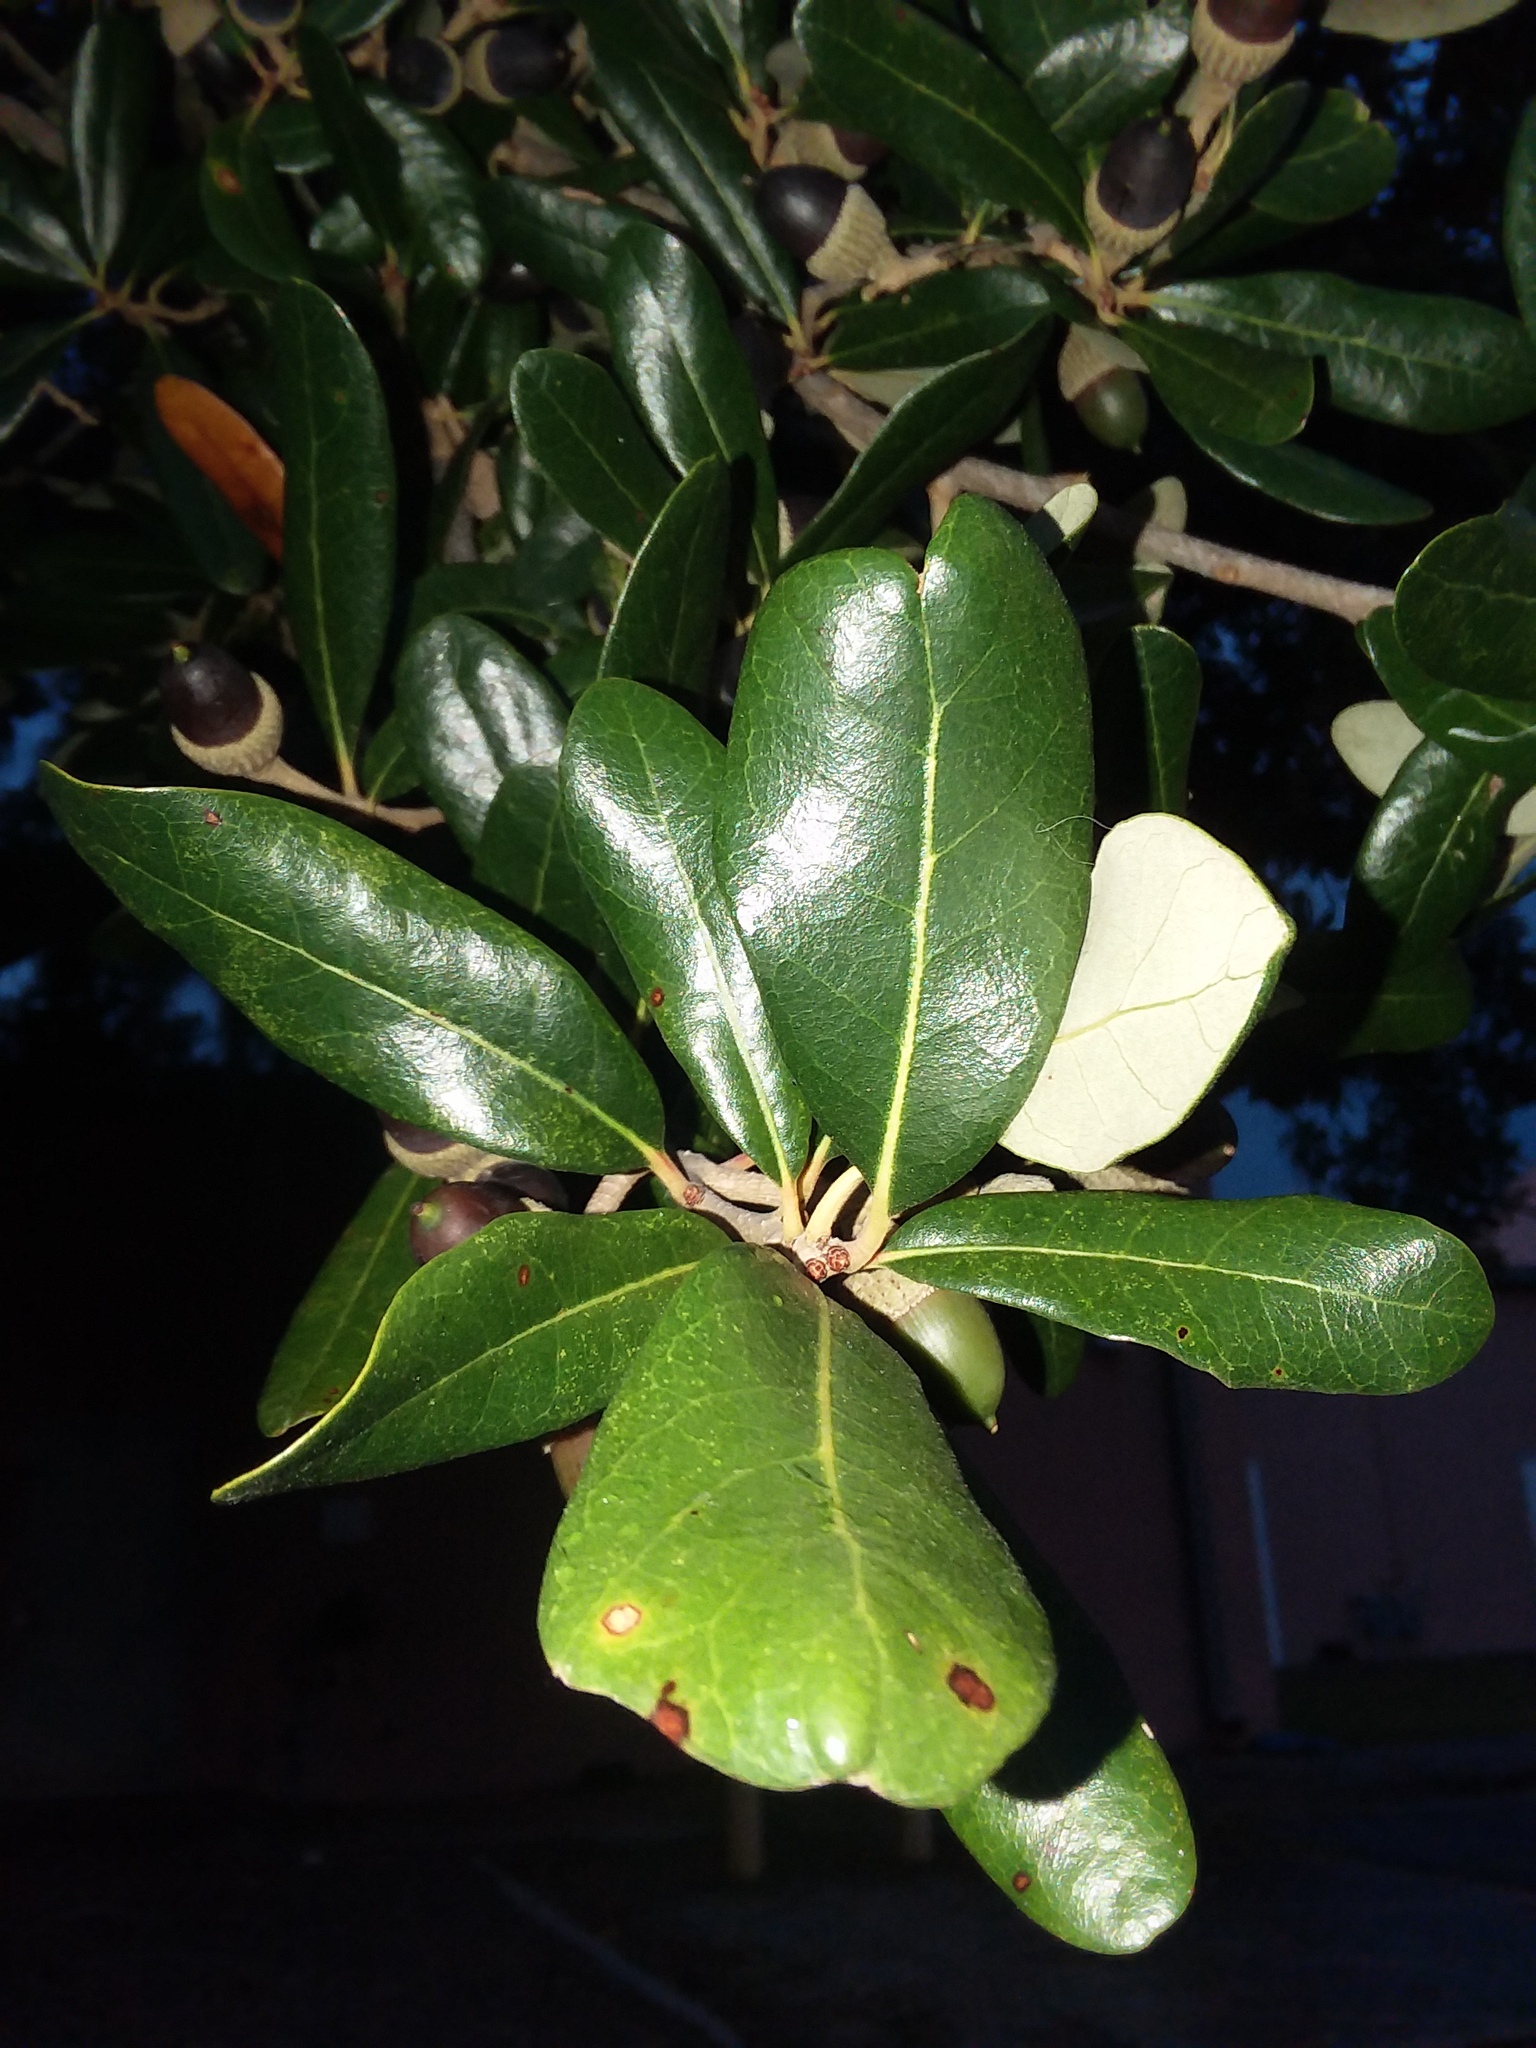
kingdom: Plantae
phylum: Tracheophyta
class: Magnoliopsida
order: Fagales
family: Fagaceae
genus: Quercus
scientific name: Quercus virginiana
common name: Southern live oak
